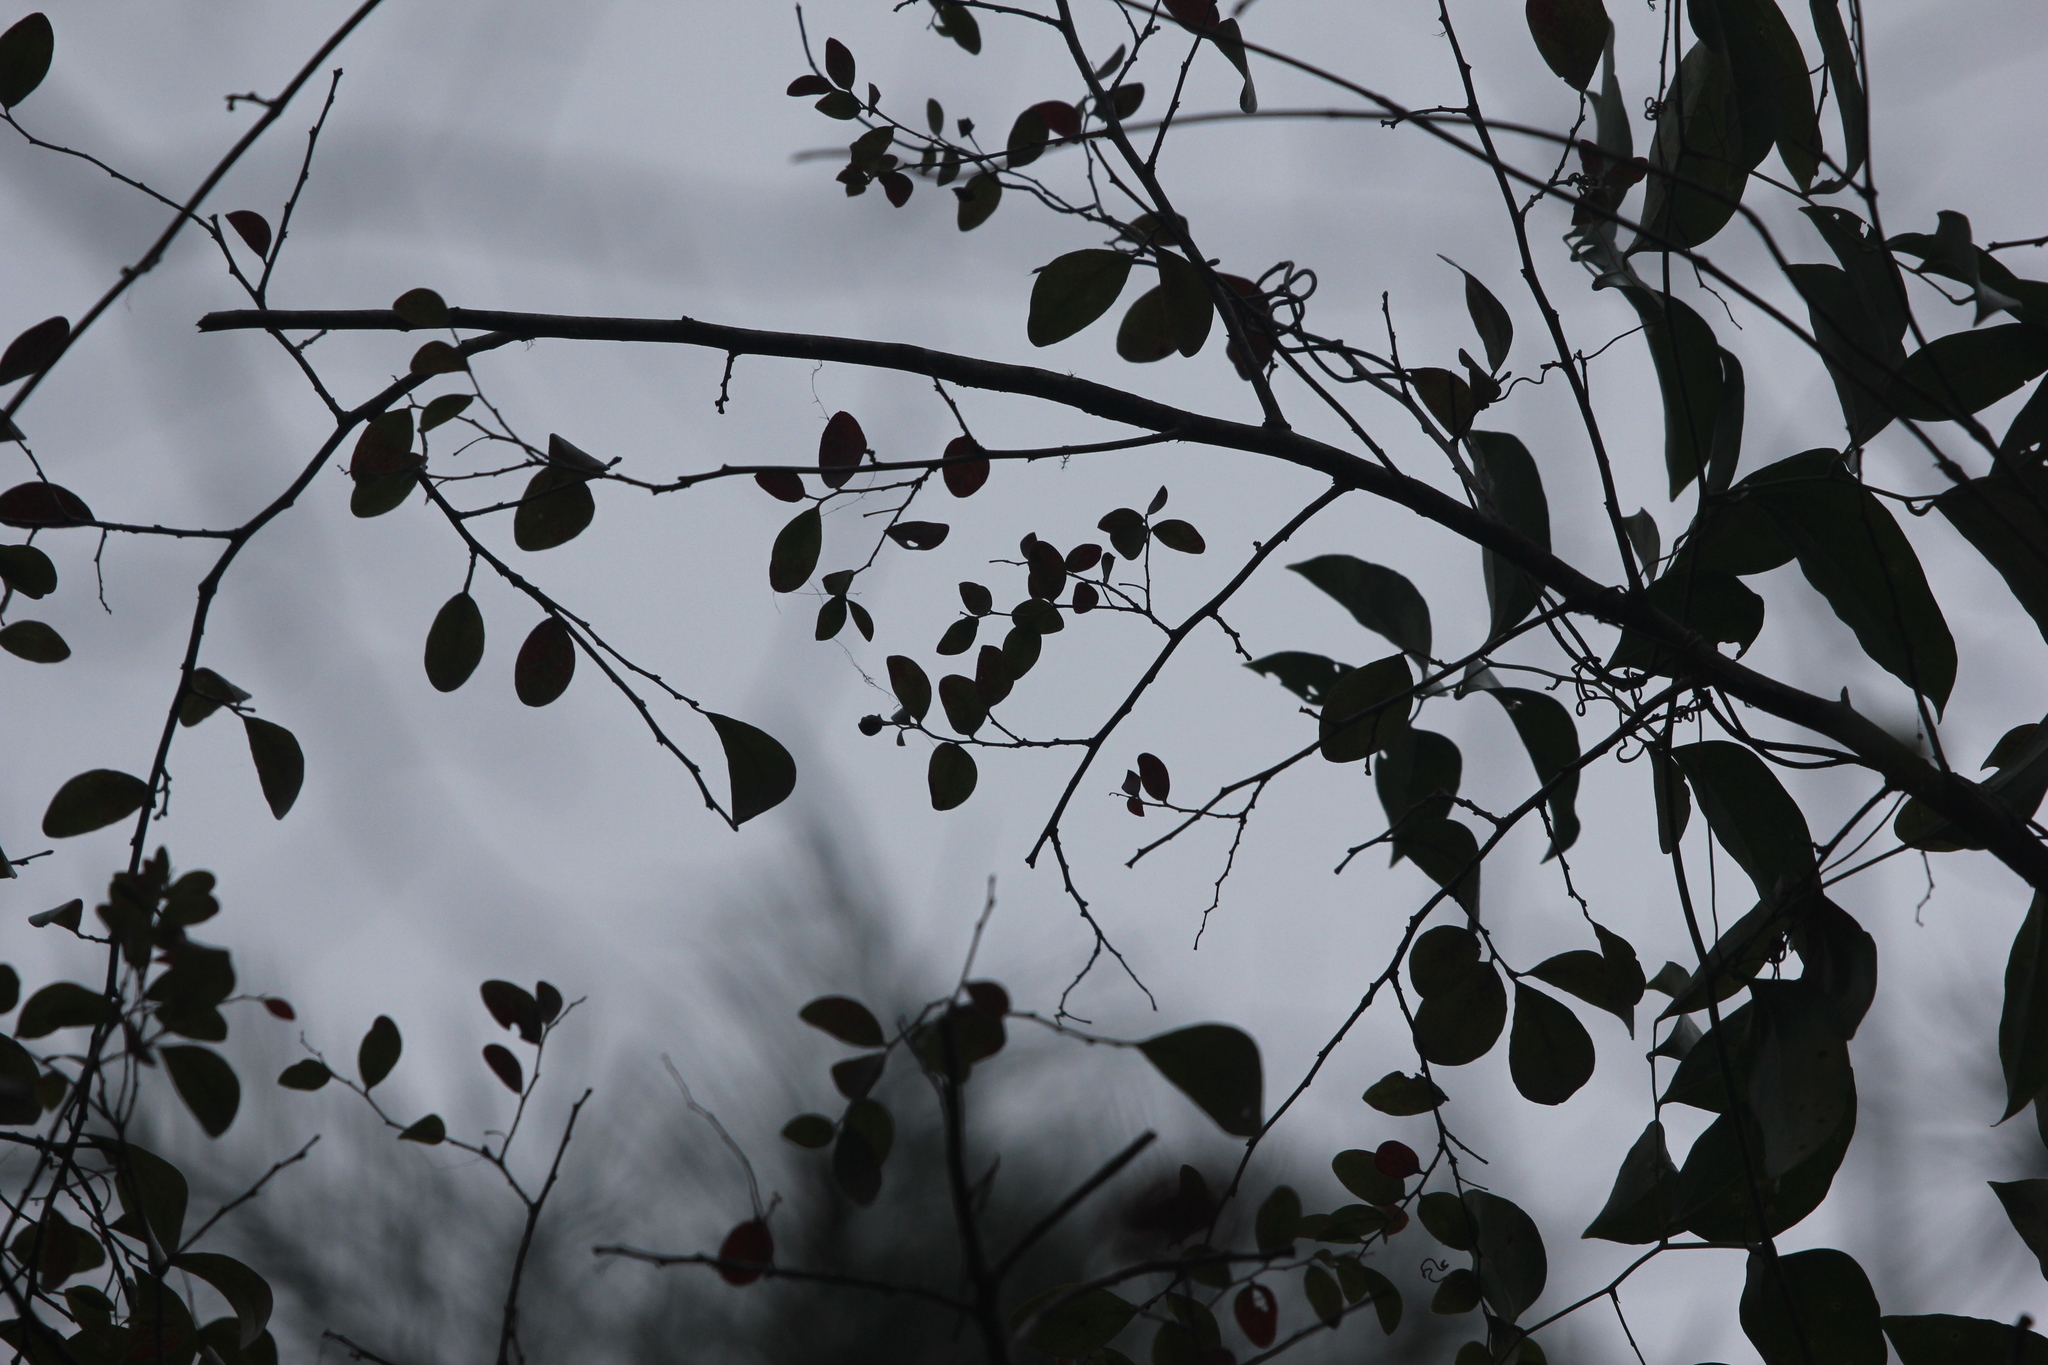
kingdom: Plantae
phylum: Tracheophyta
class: Magnoliopsida
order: Ericales
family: Ericaceae
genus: Vaccinium
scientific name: Vaccinium arboreum
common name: Farkleberry
